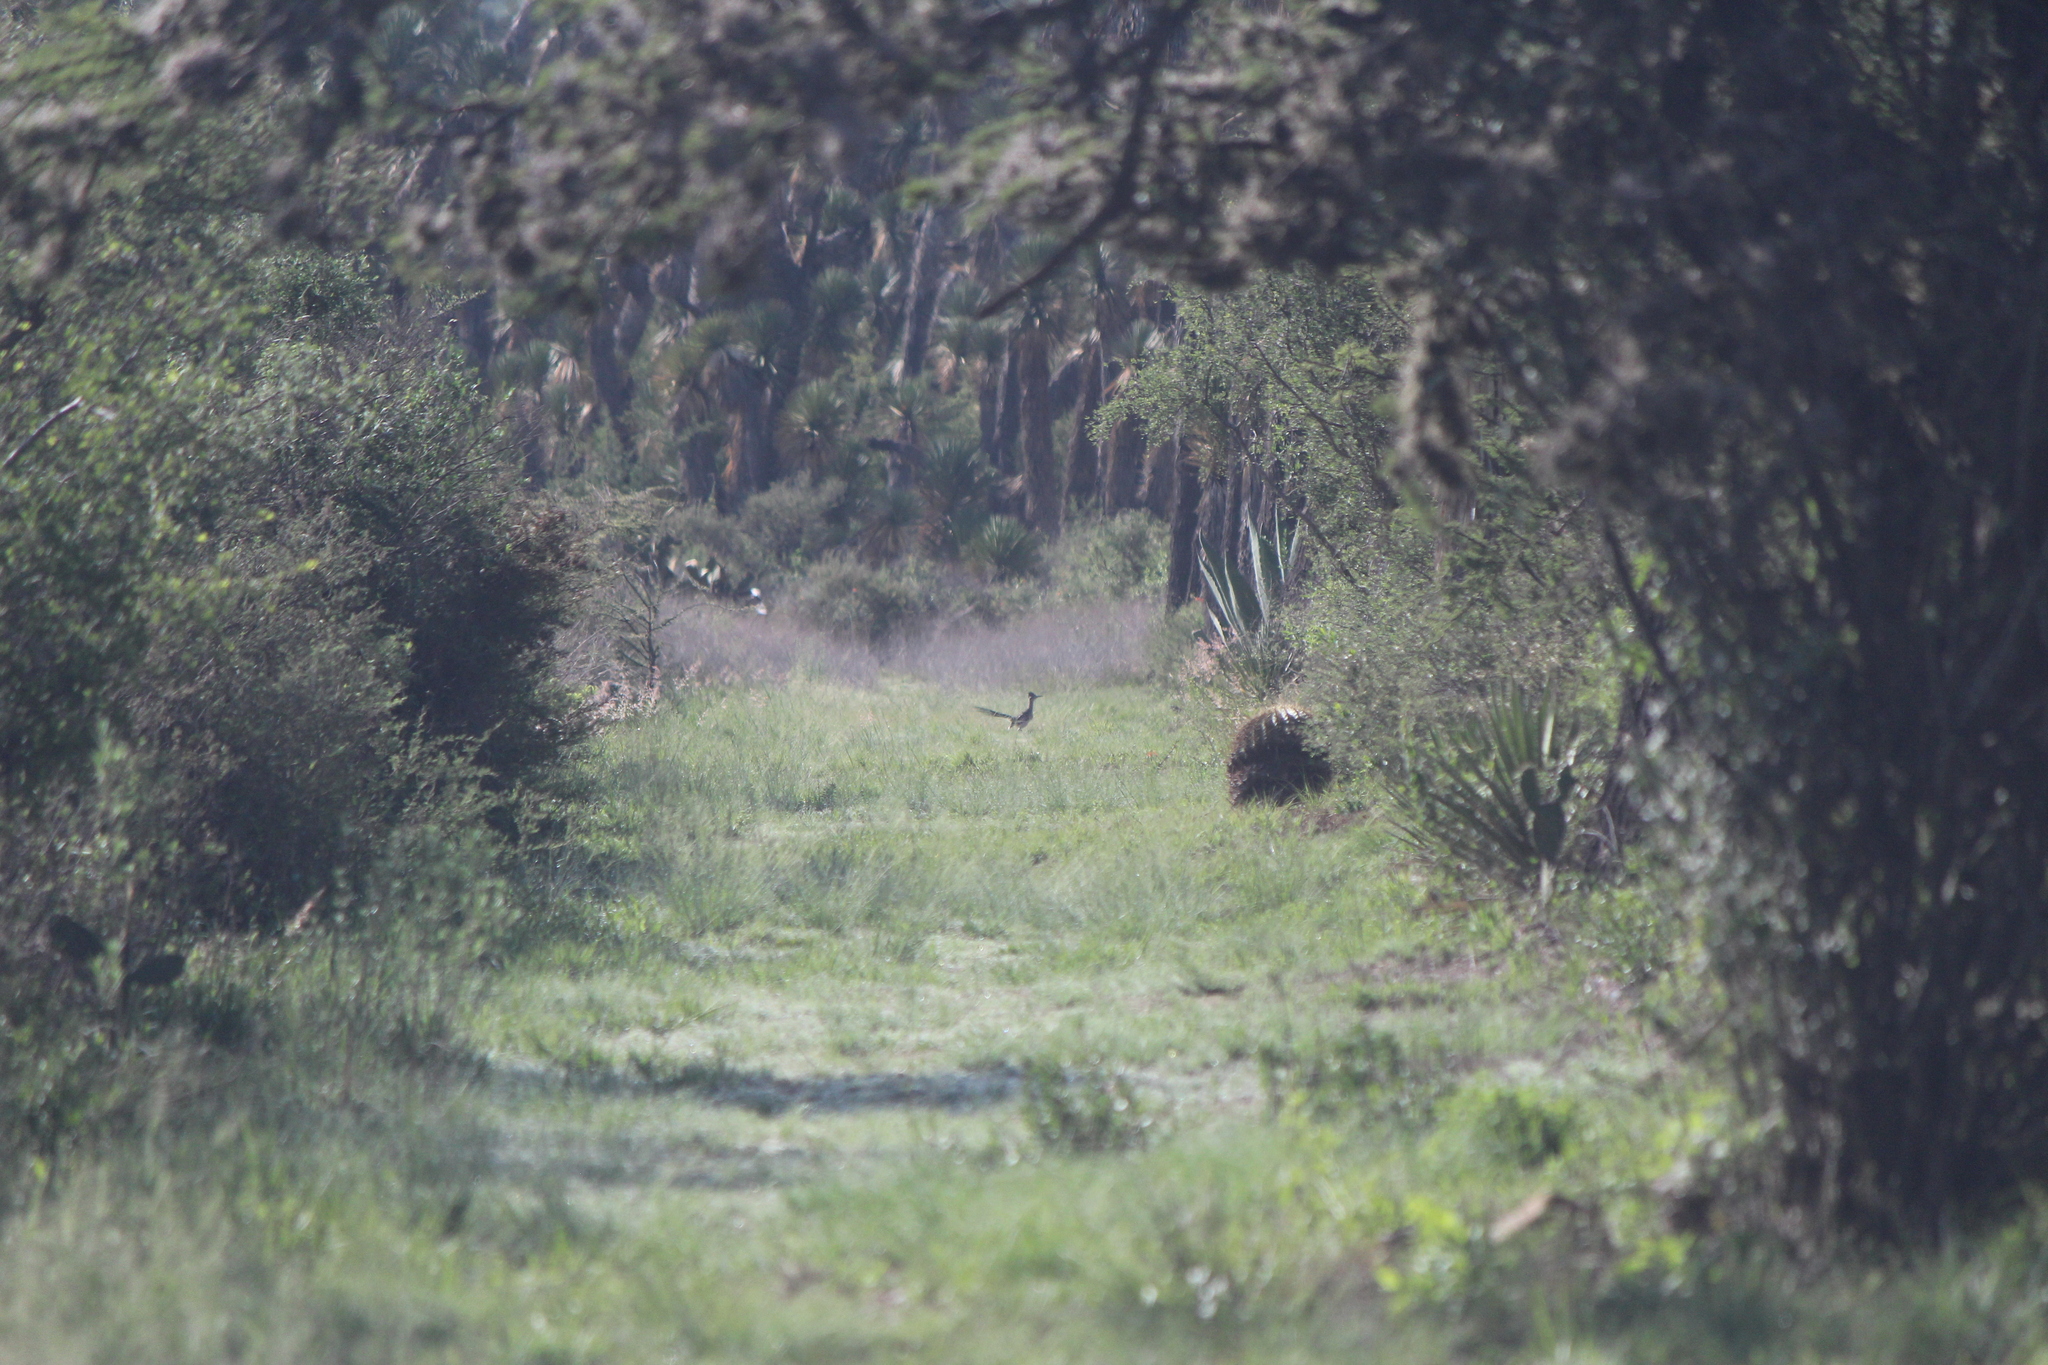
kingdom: Animalia
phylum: Chordata
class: Aves
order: Cuculiformes
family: Cuculidae
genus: Geococcyx
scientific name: Geococcyx californianus
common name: Greater roadrunner
